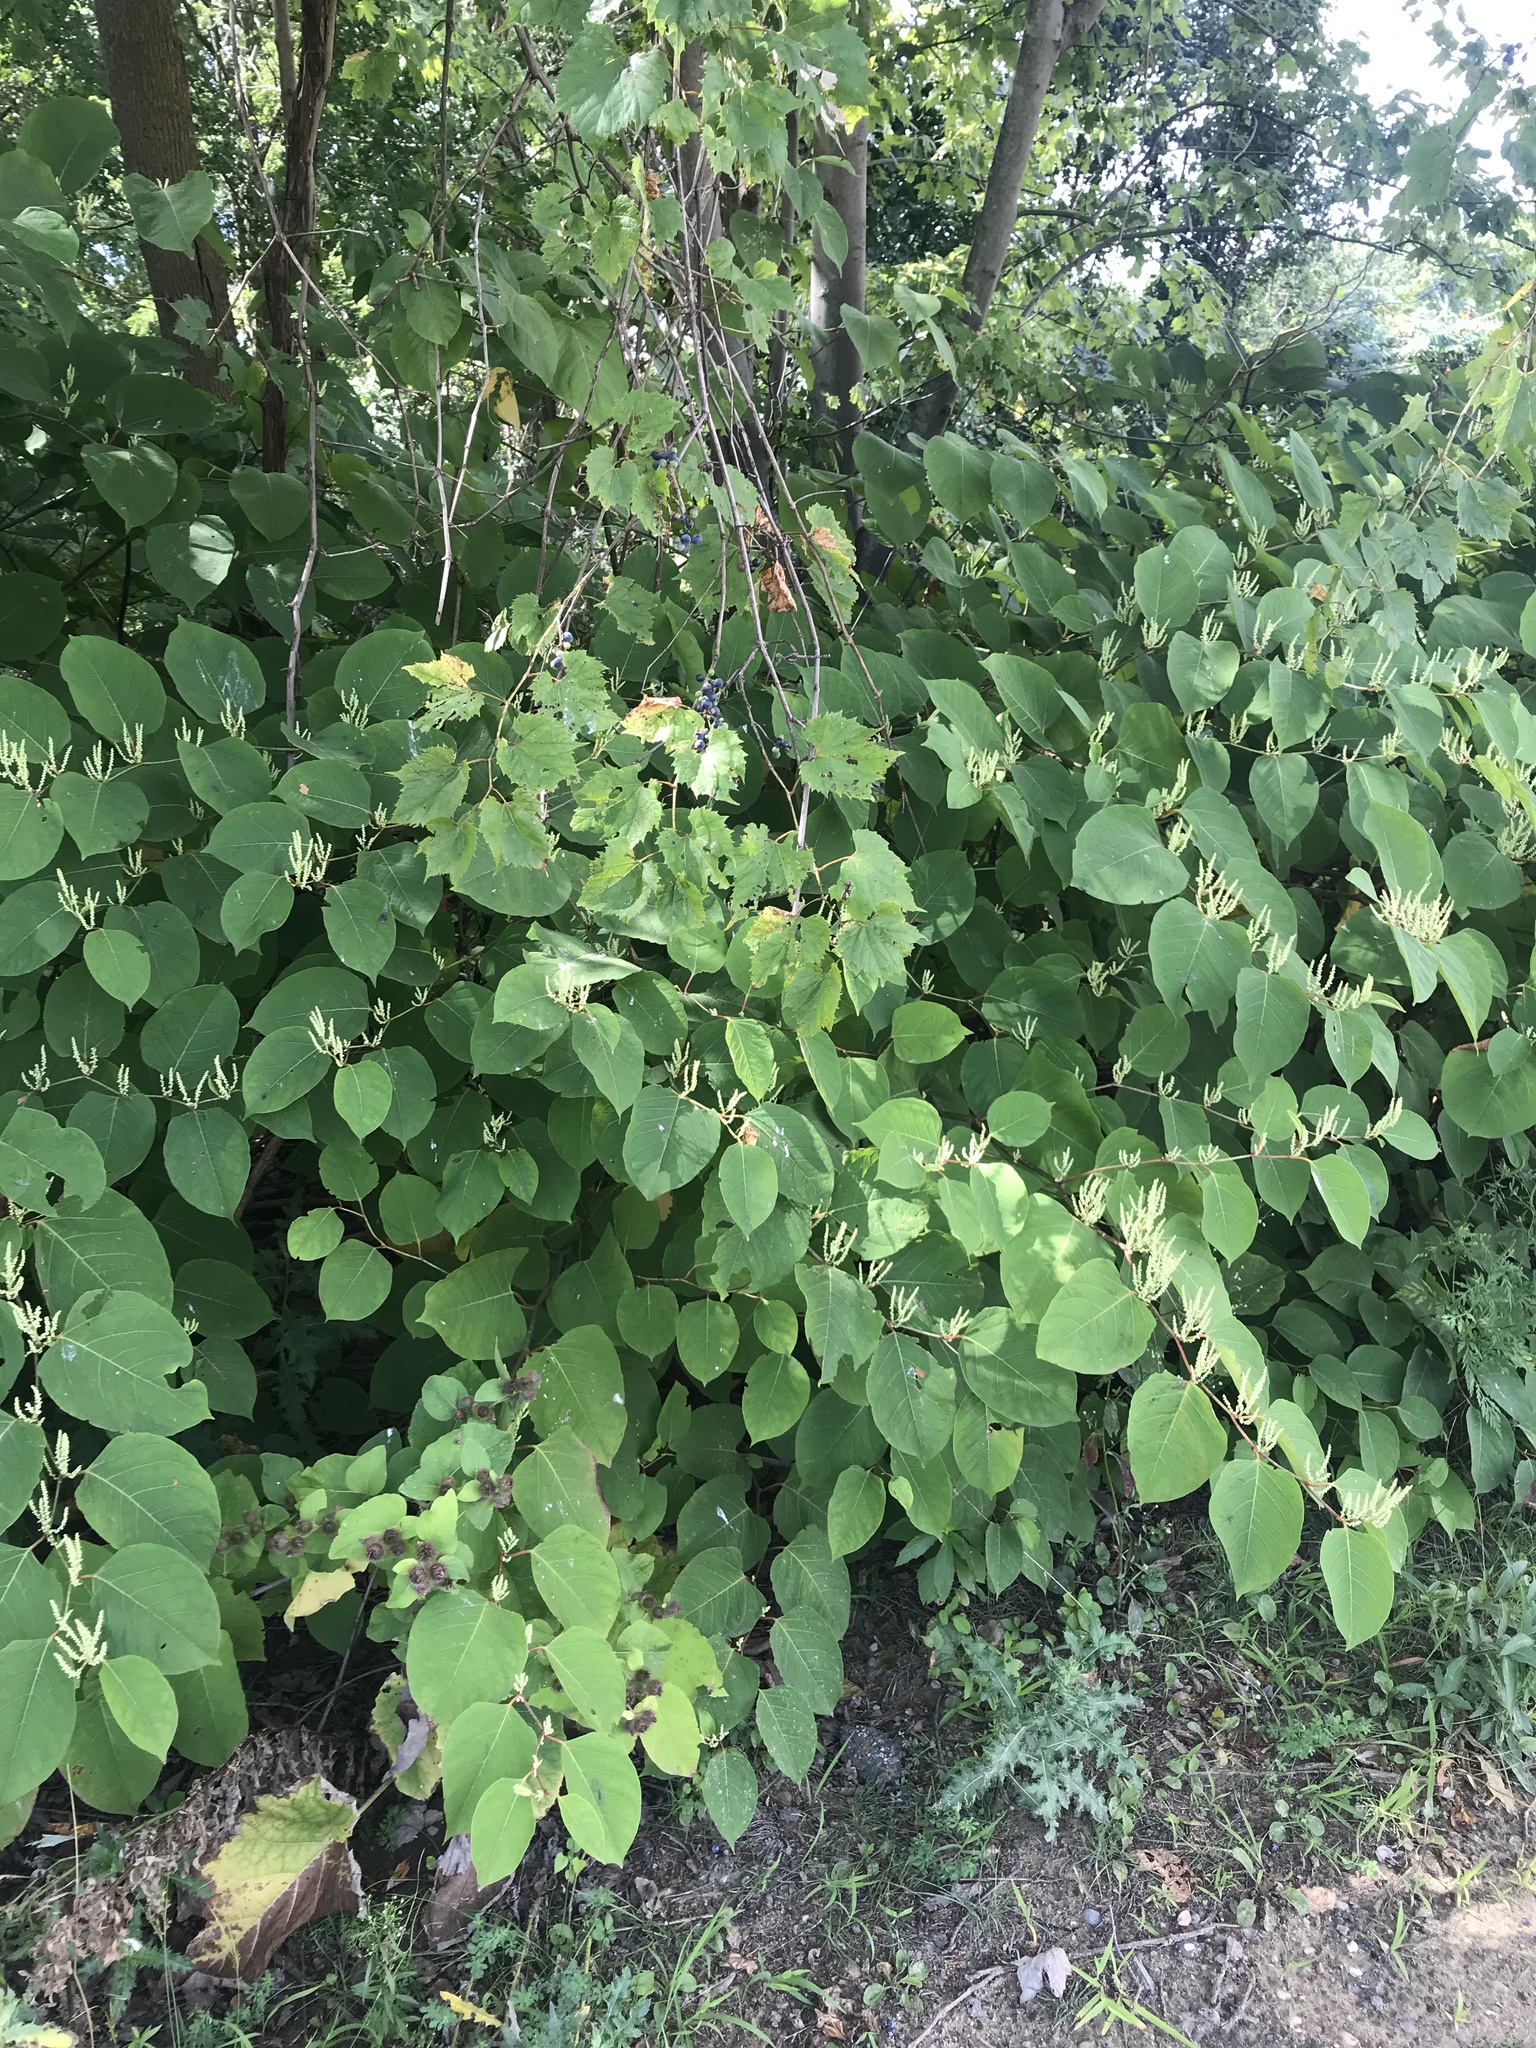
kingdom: Plantae
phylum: Tracheophyta
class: Magnoliopsida
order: Caryophyllales
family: Polygonaceae
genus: Reynoutria
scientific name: Reynoutria japonica
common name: Japanese knotweed
